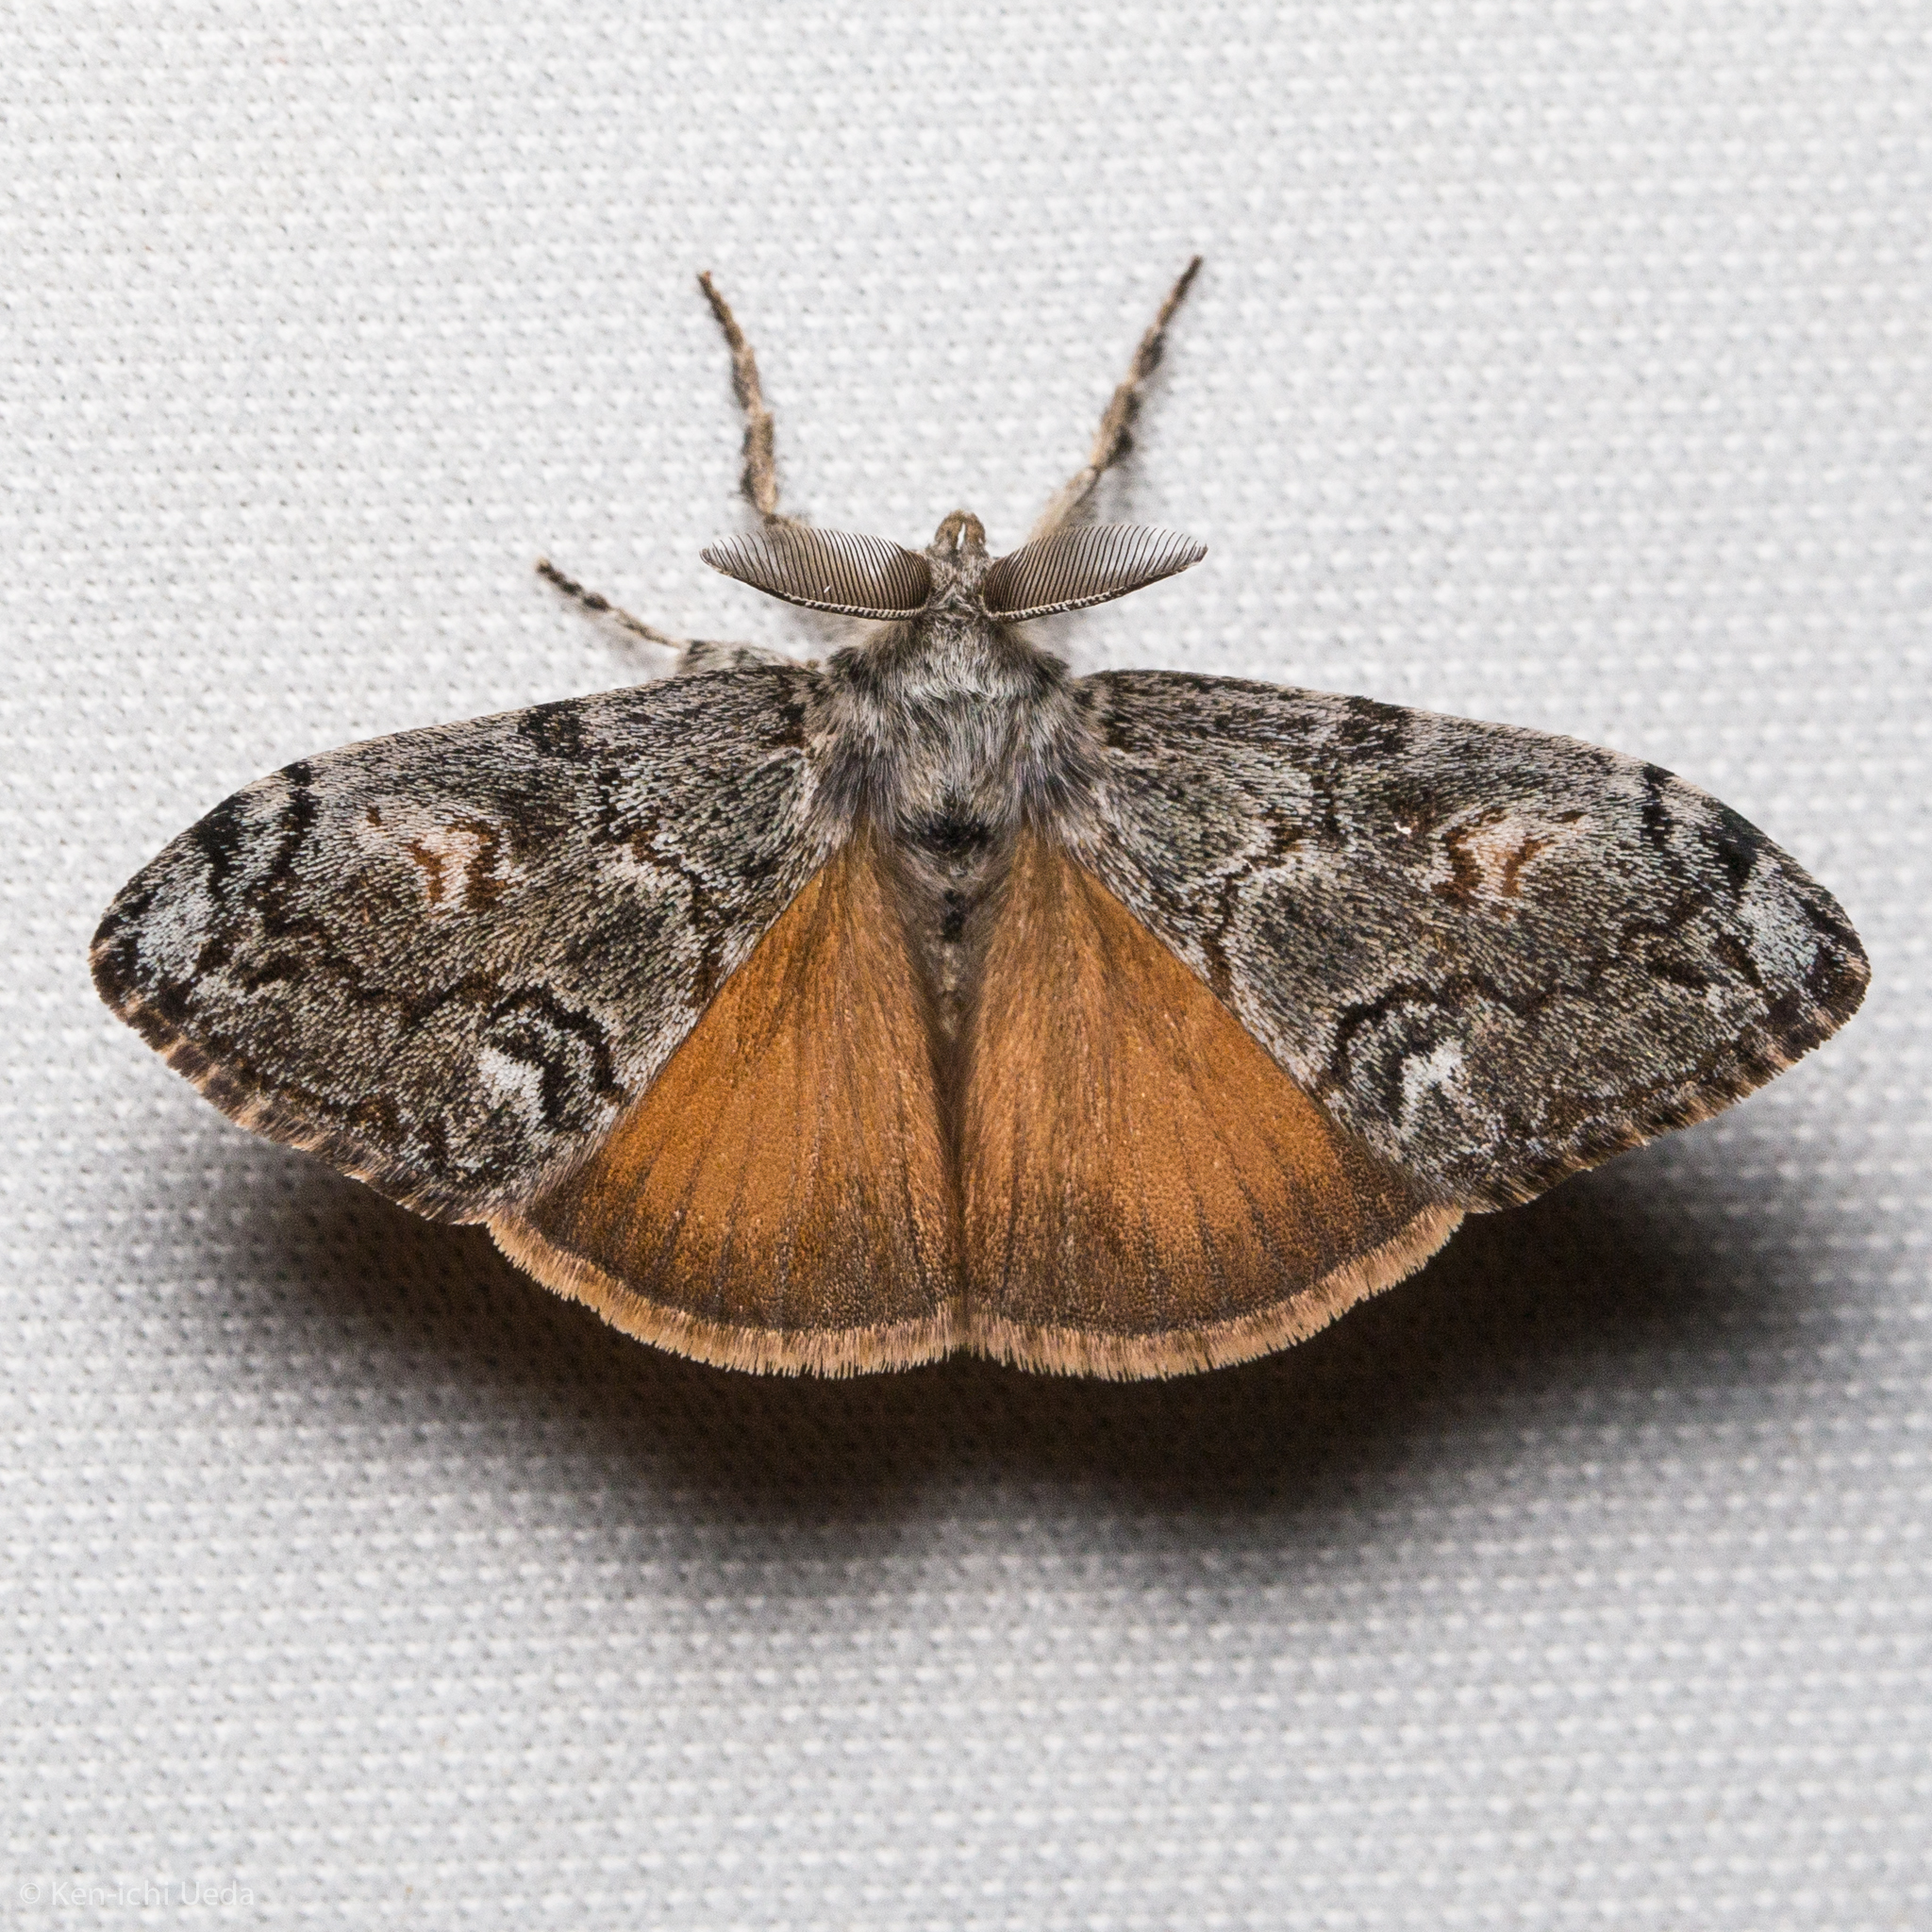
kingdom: Animalia
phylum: Arthropoda
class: Insecta
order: Lepidoptera
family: Erebidae
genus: Orgyia
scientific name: Orgyia pseudotsugata
